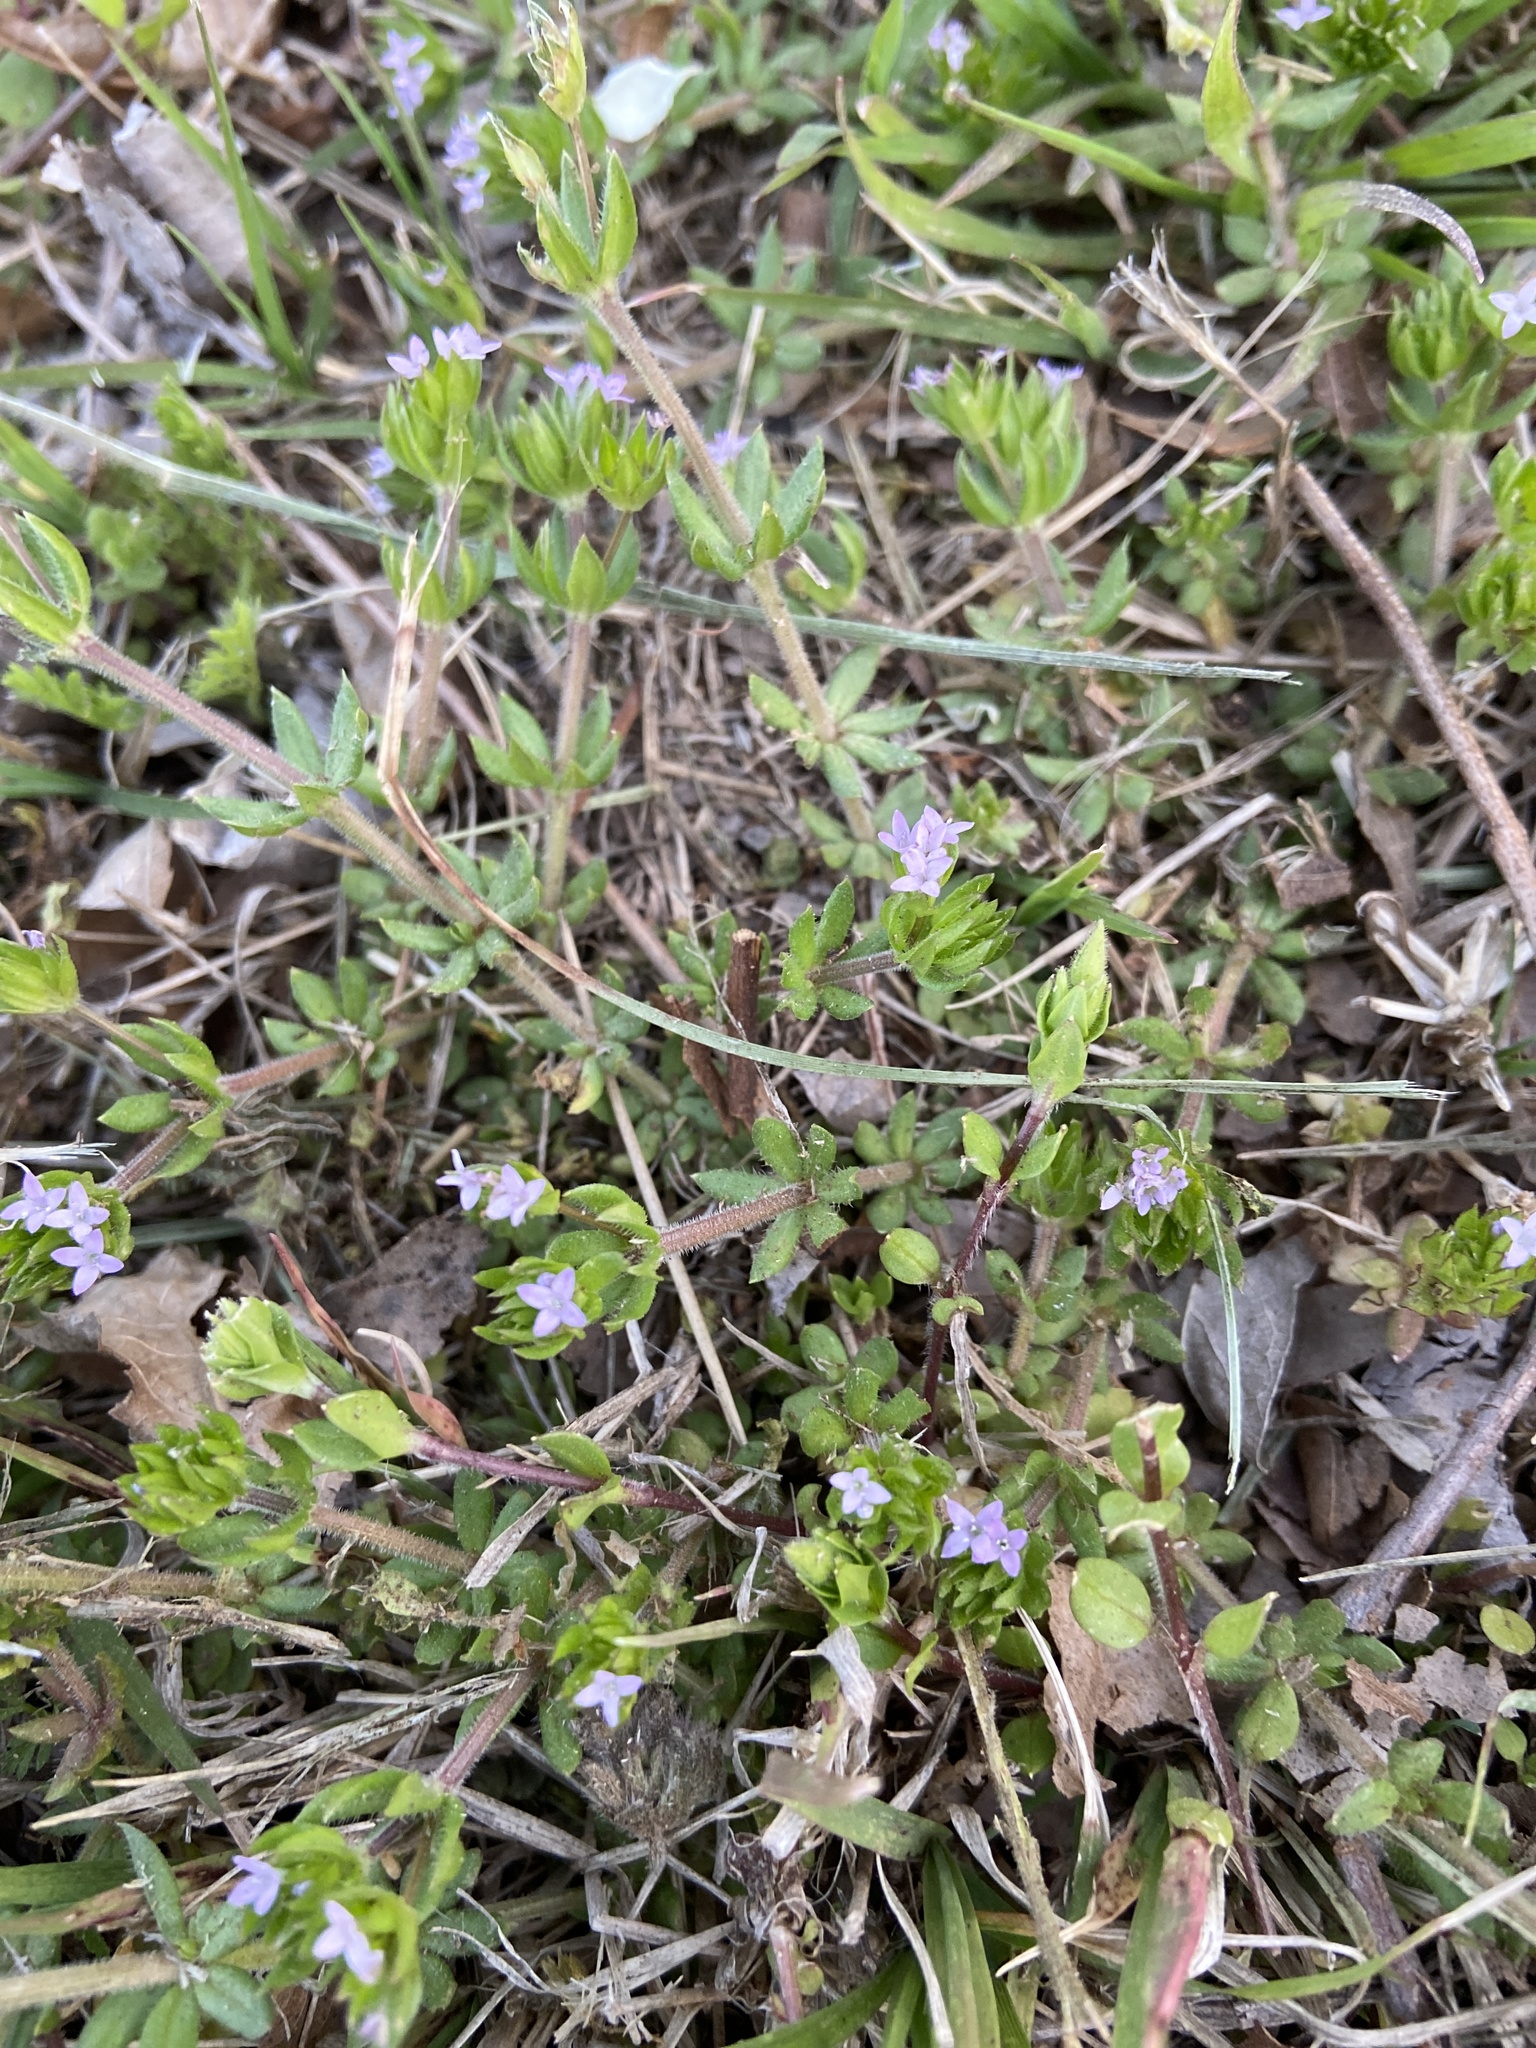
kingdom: Plantae
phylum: Tracheophyta
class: Magnoliopsida
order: Gentianales
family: Rubiaceae
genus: Sherardia
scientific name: Sherardia arvensis
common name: Field madder
